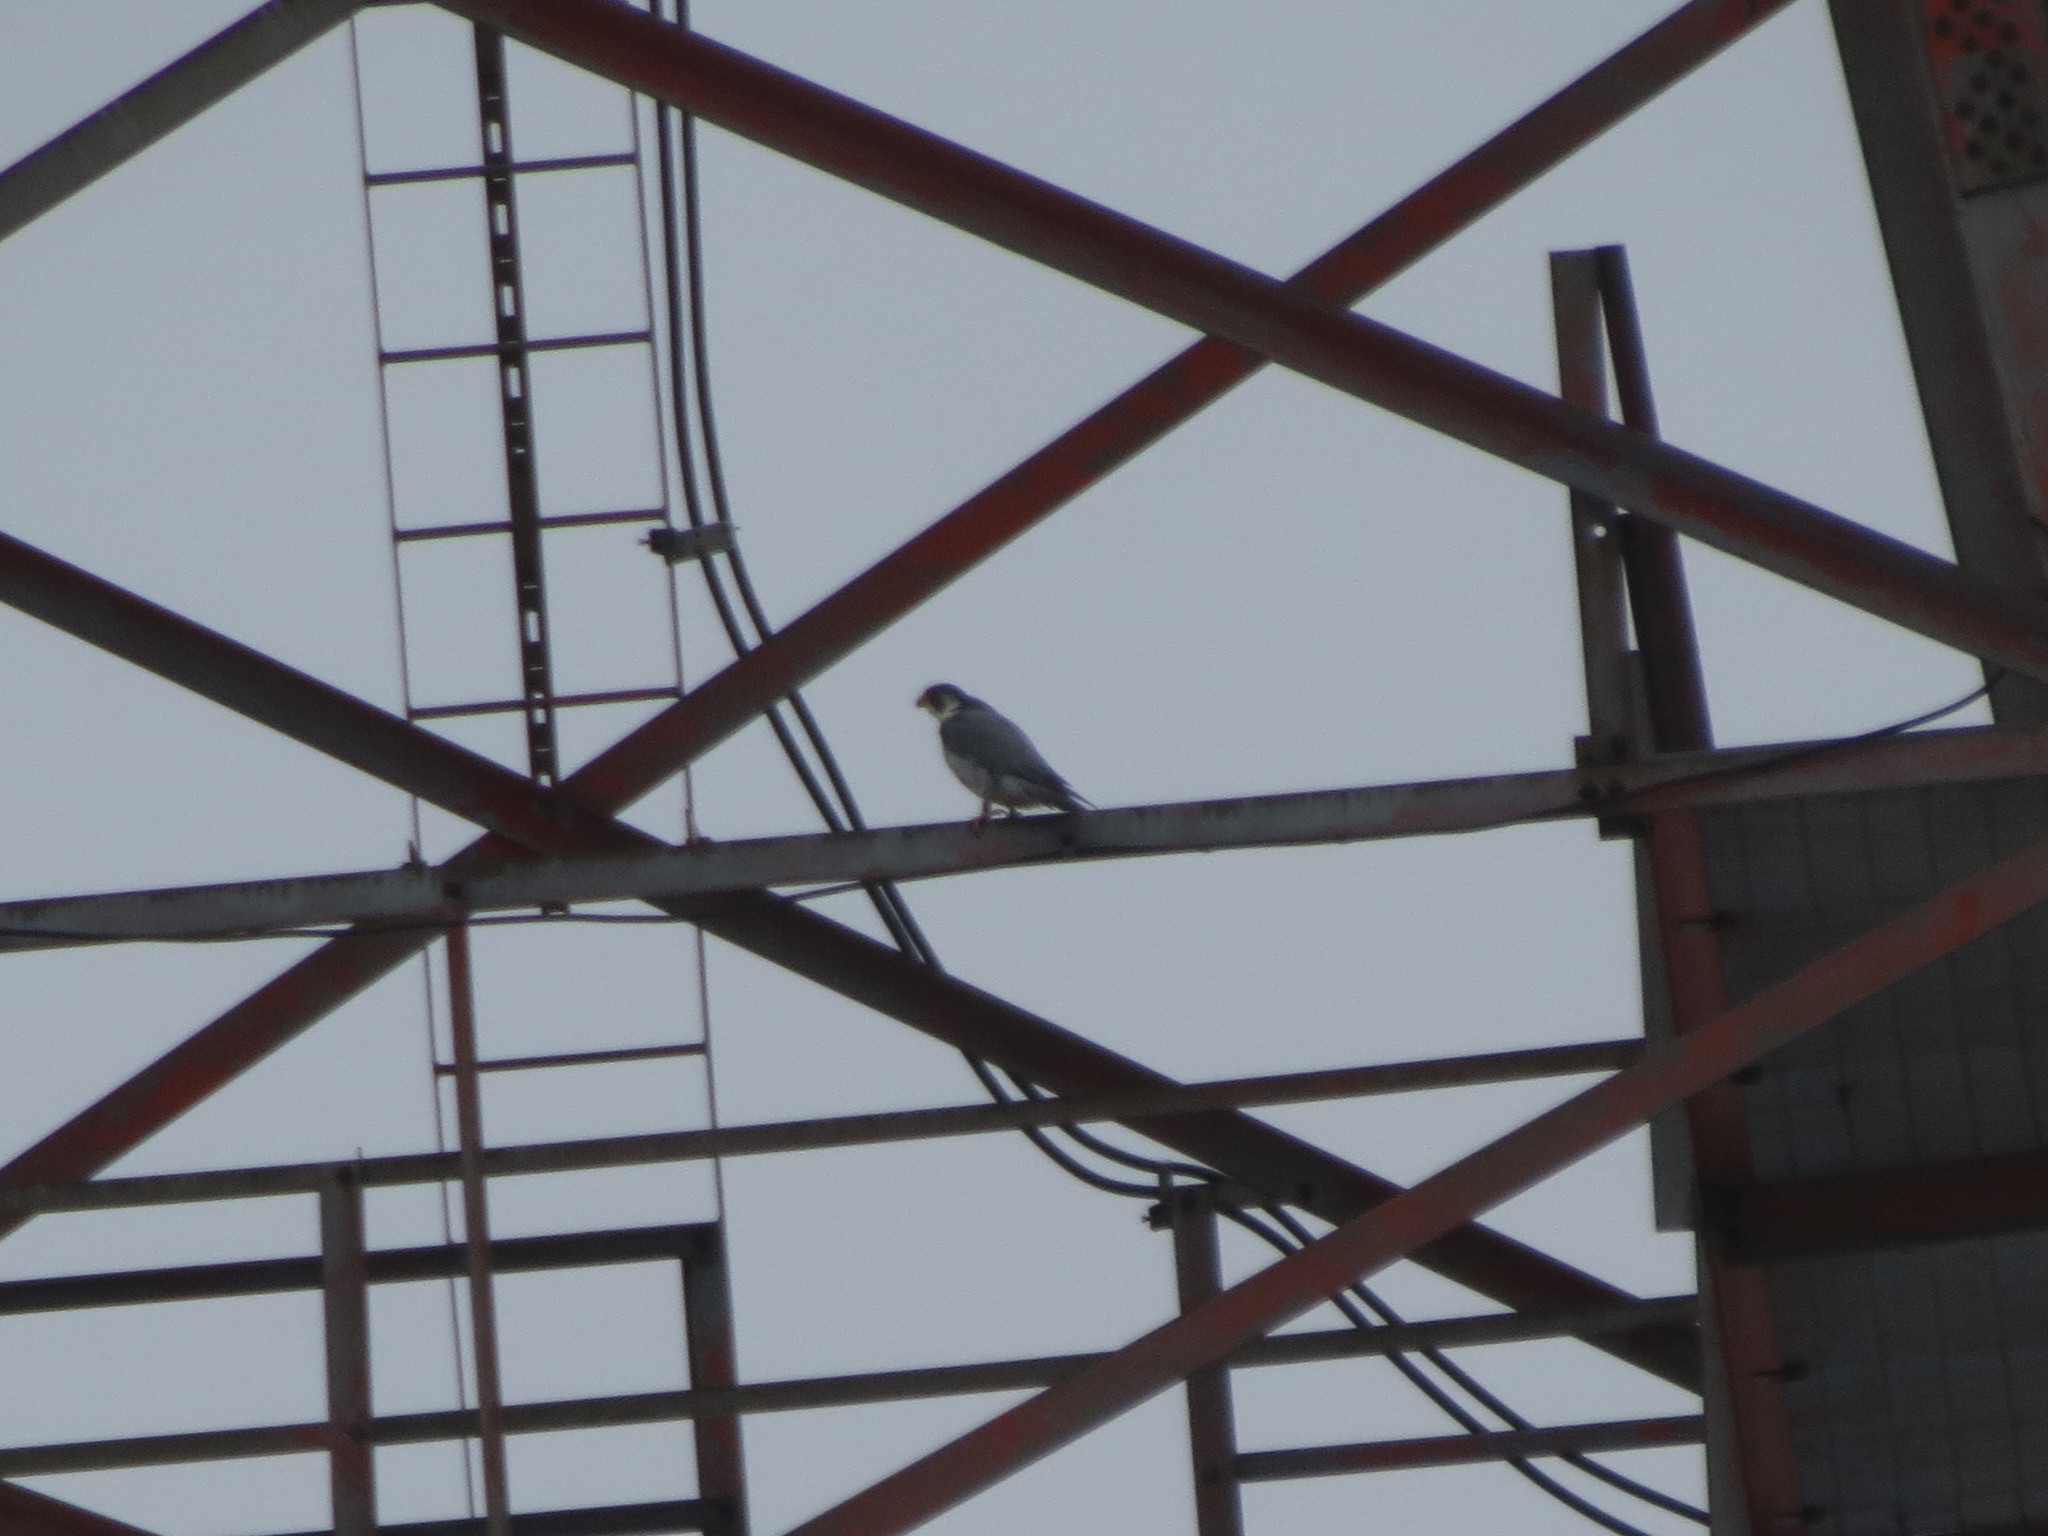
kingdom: Animalia
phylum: Chordata
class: Aves
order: Falconiformes
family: Falconidae
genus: Falco
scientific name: Falco peregrinus
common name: Peregrine falcon
